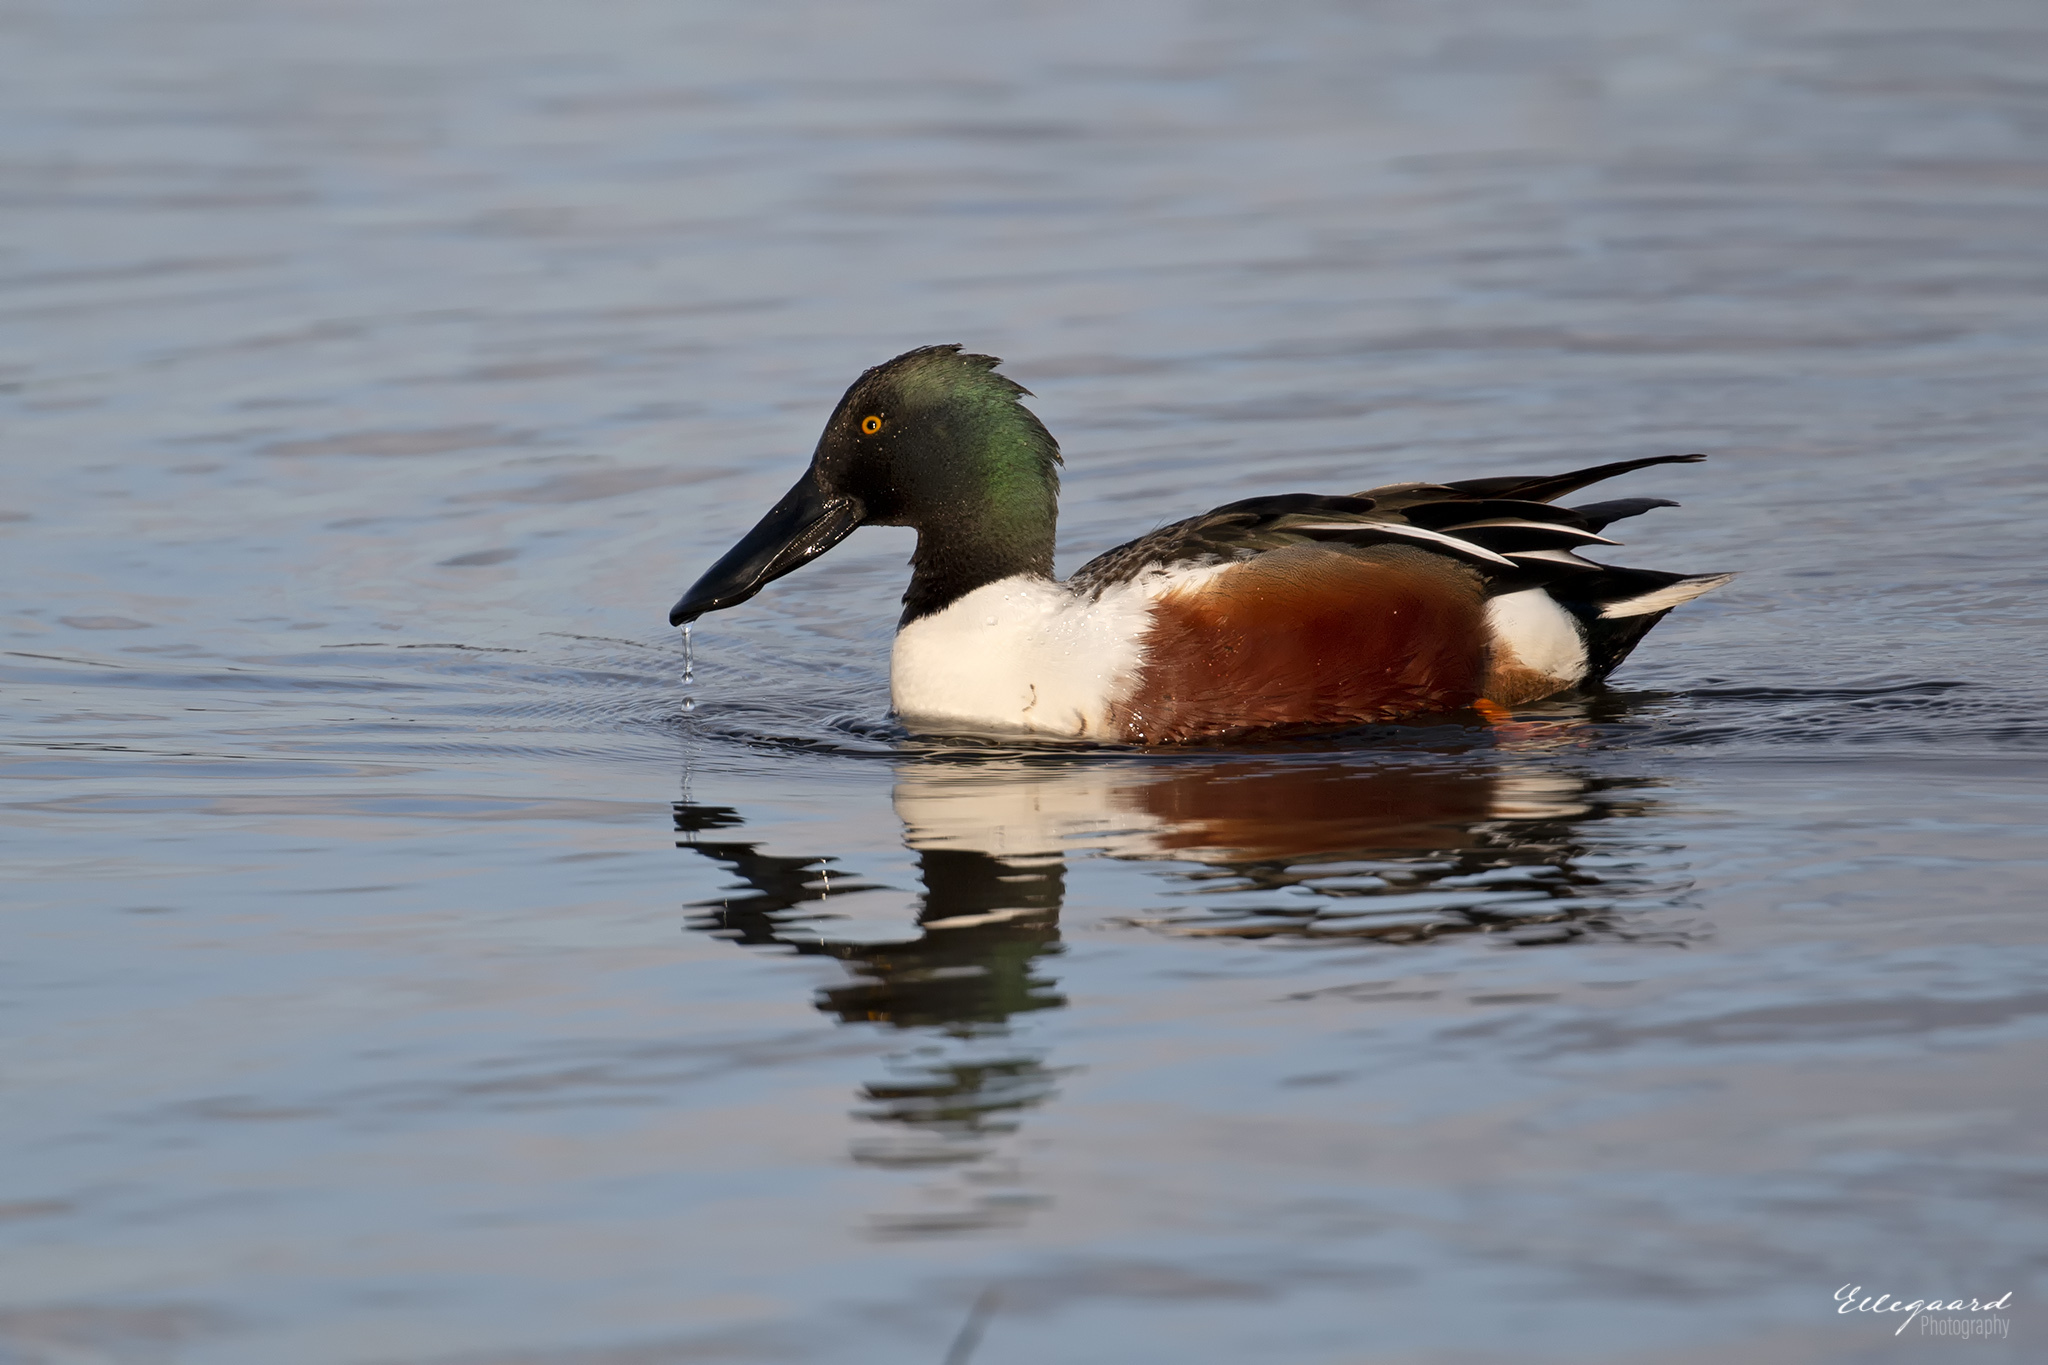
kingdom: Animalia
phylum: Chordata
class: Aves
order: Anseriformes
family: Anatidae
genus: Spatula
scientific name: Spatula clypeata
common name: Northern shoveler
